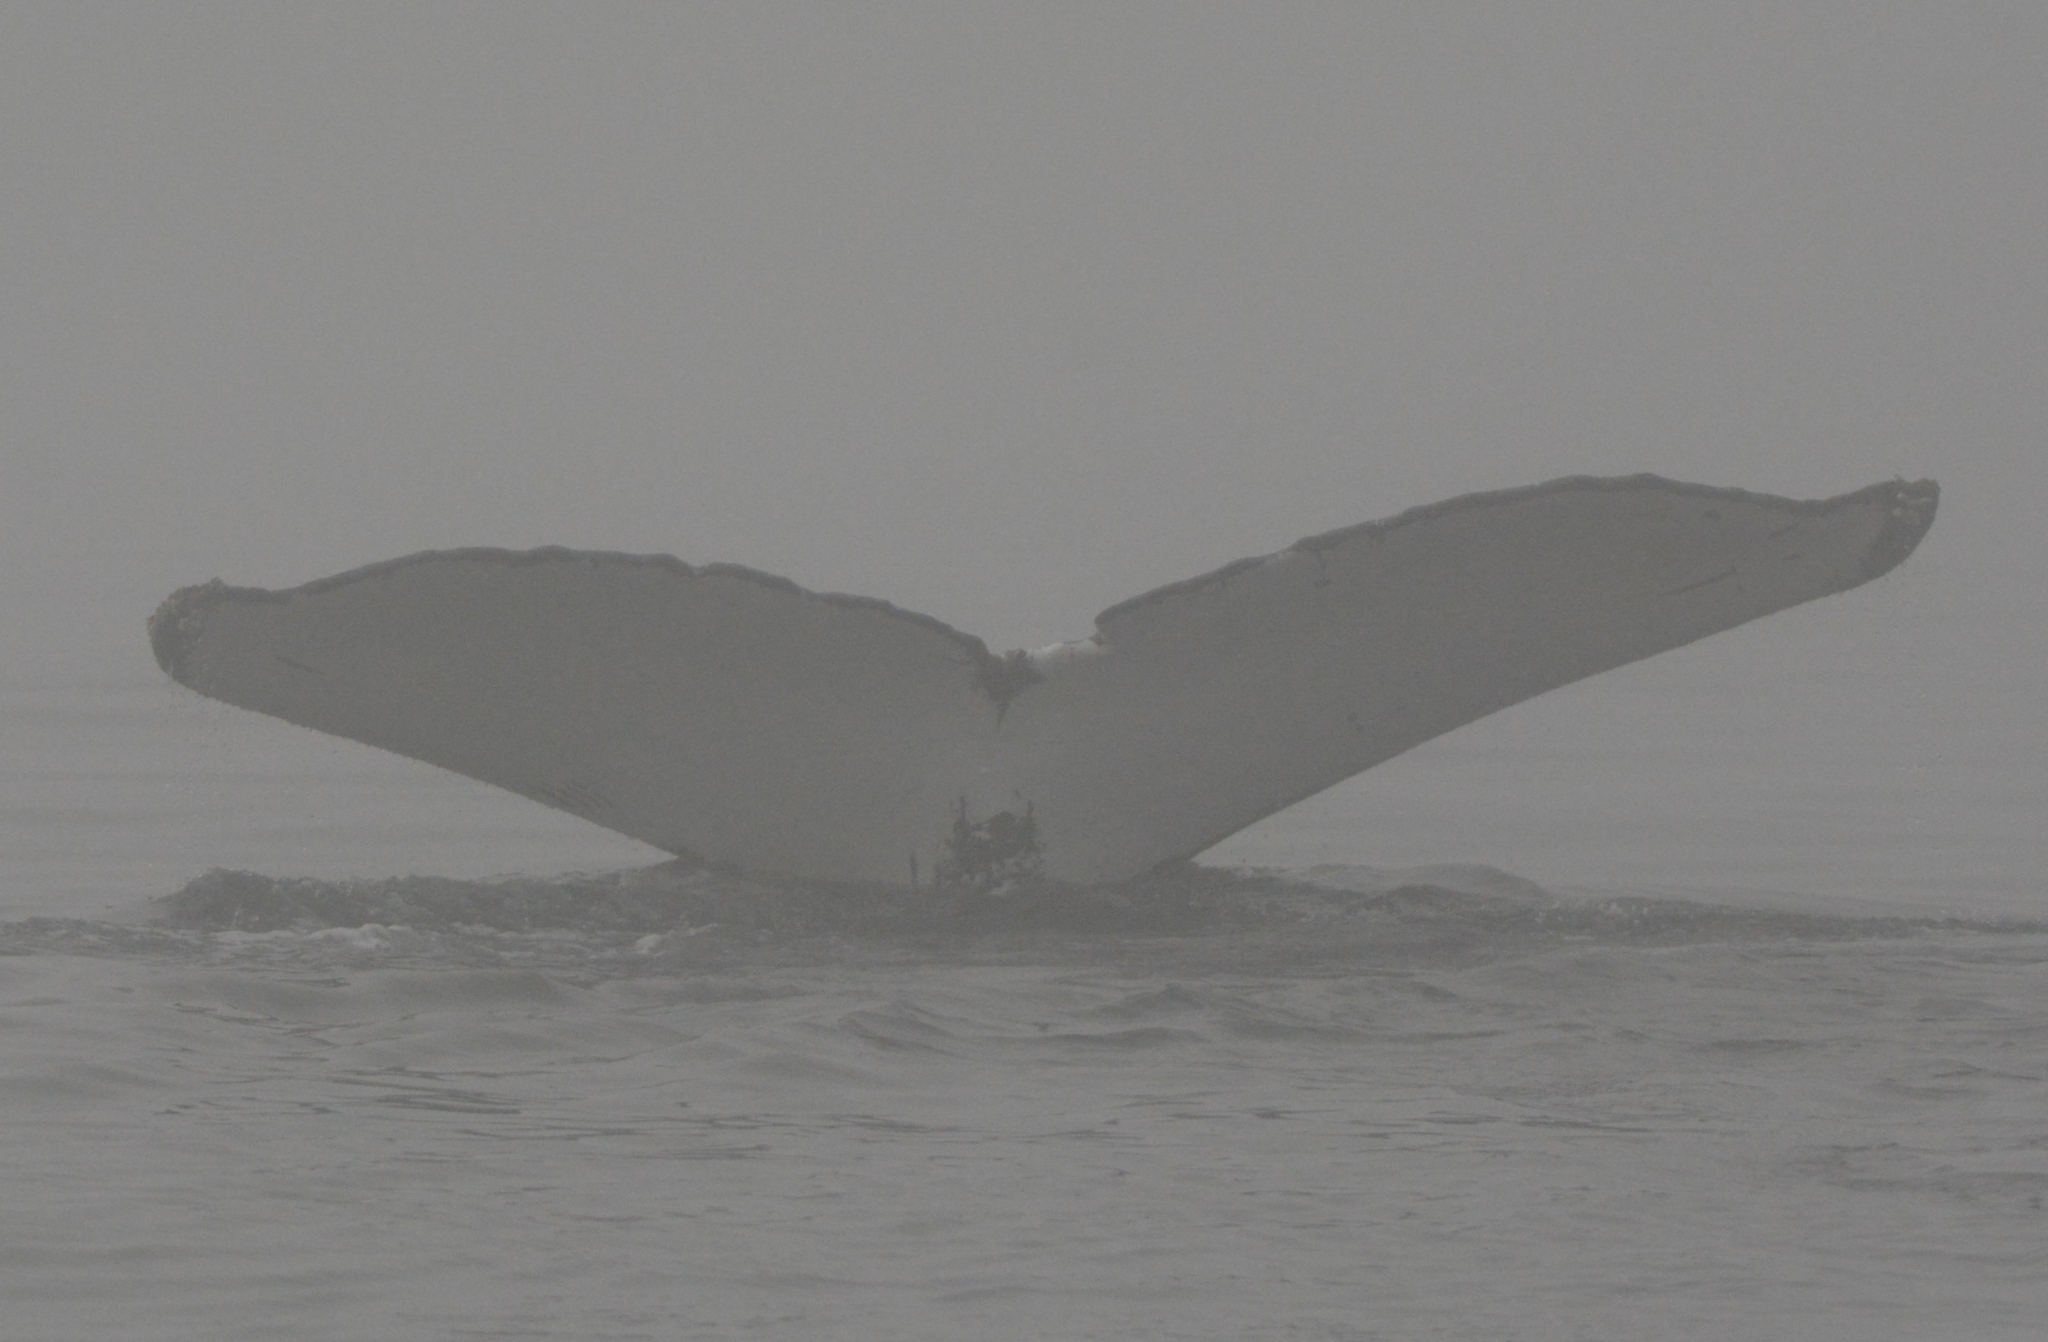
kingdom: Animalia
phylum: Chordata
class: Mammalia
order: Cetacea
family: Balaenopteridae
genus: Megaptera
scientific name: Megaptera novaeangliae
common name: Humpback whale
